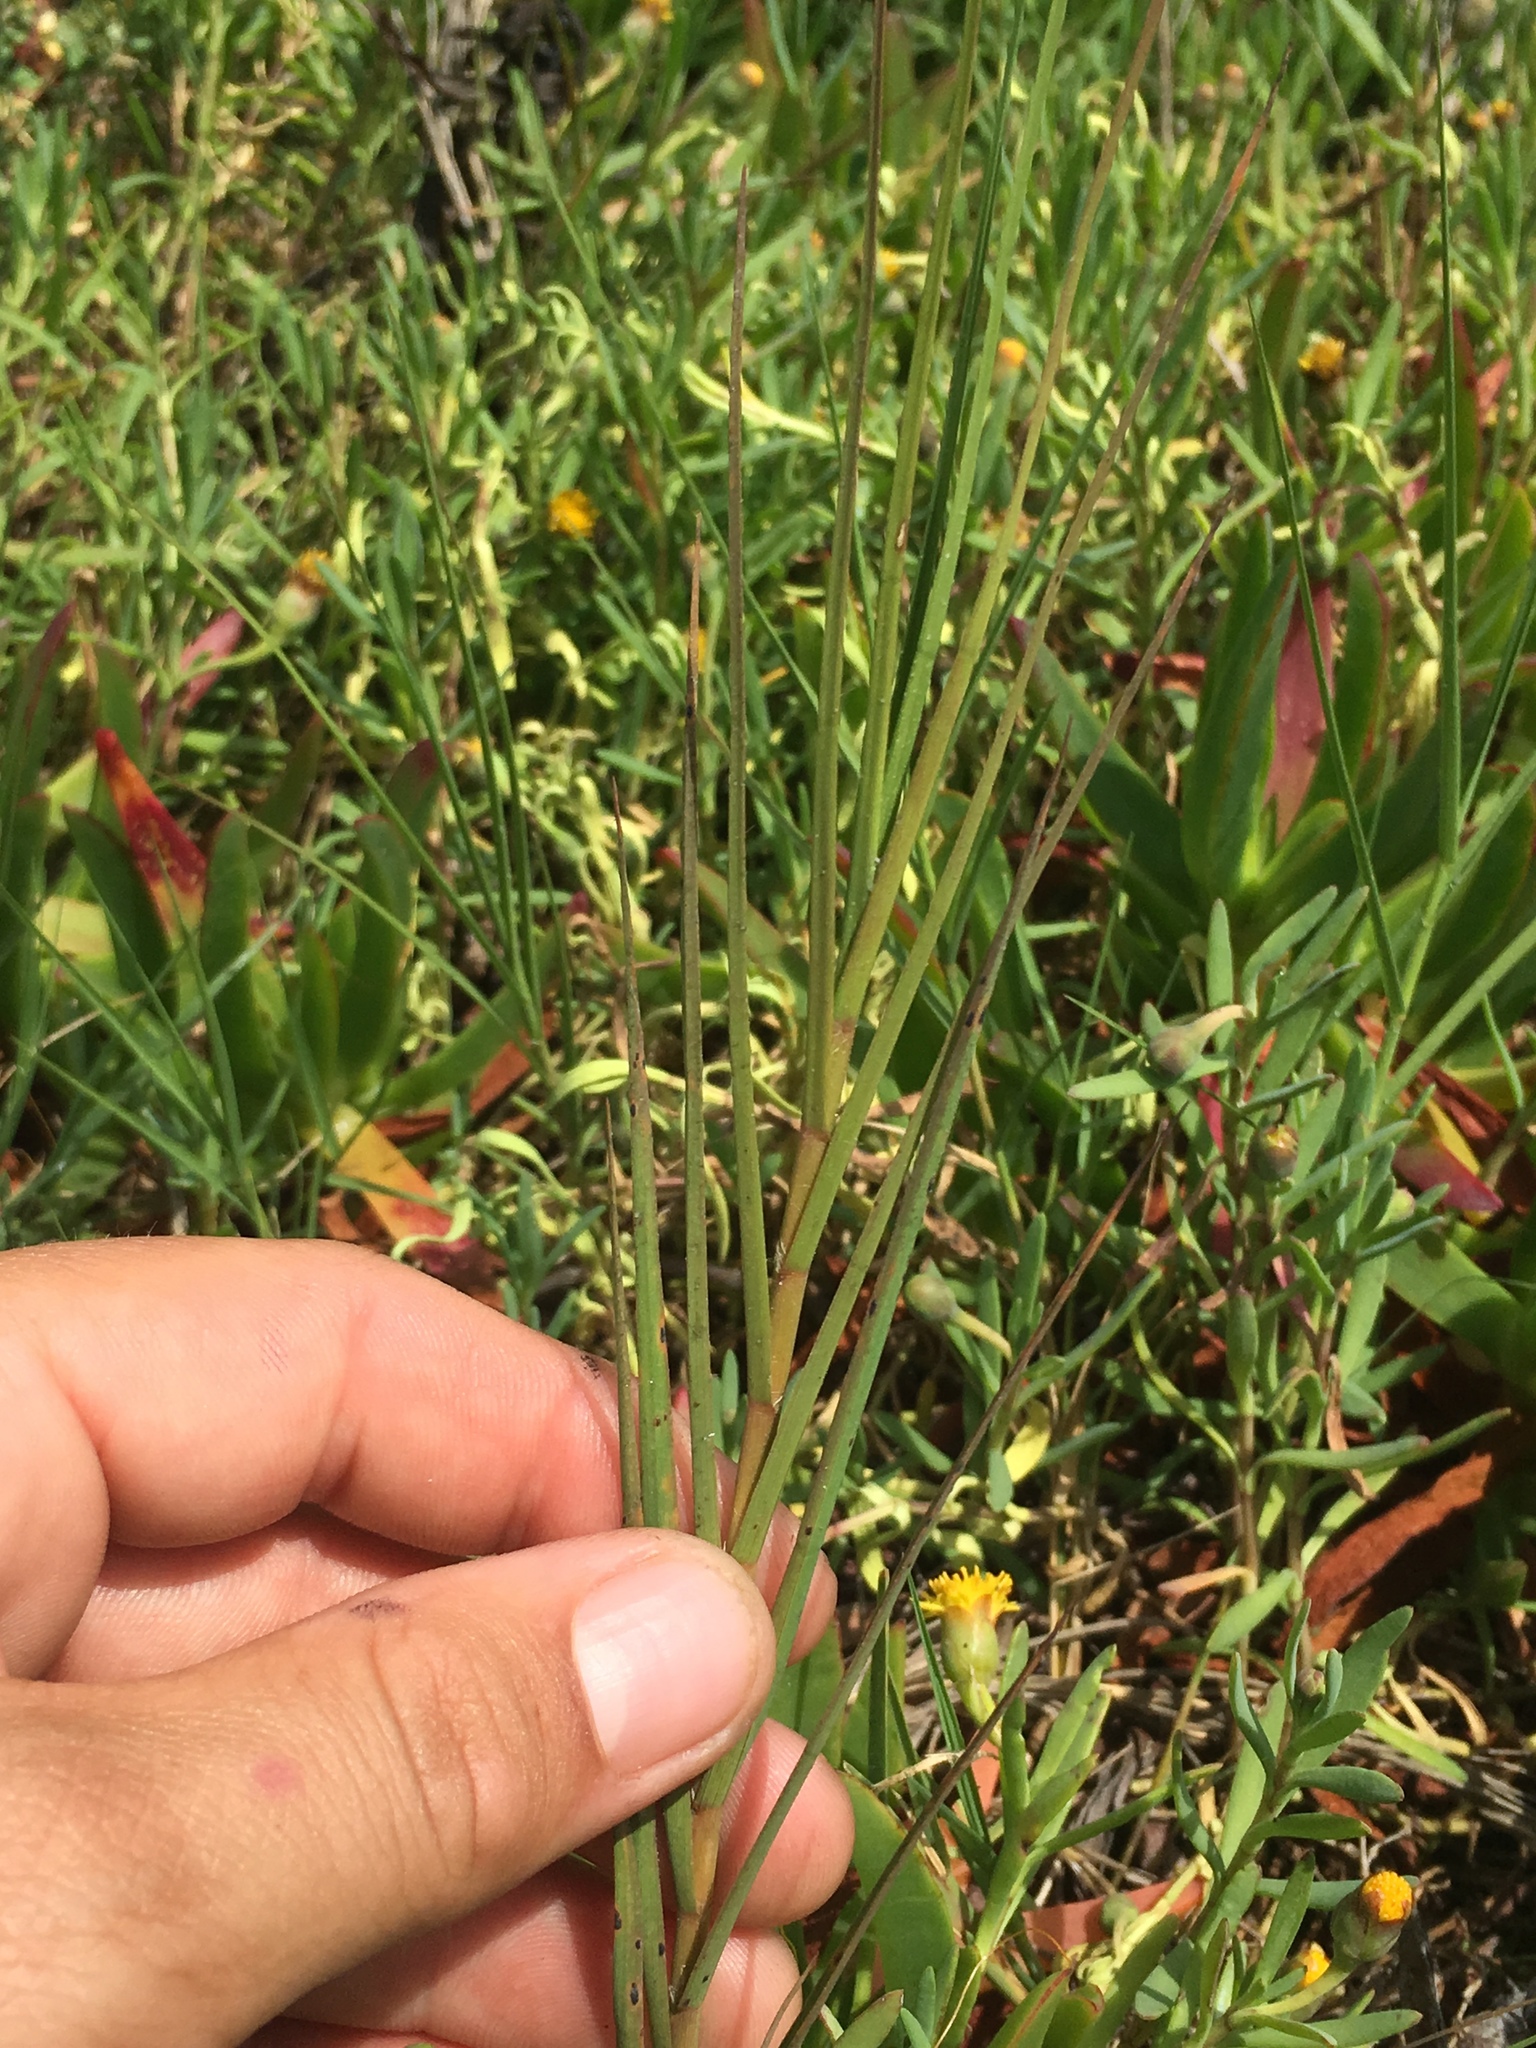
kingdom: Plantae
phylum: Tracheophyta
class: Liliopsida
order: Poales
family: Poaceae
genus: Distichlis
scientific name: Distichlis spicata
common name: Saltgrass
